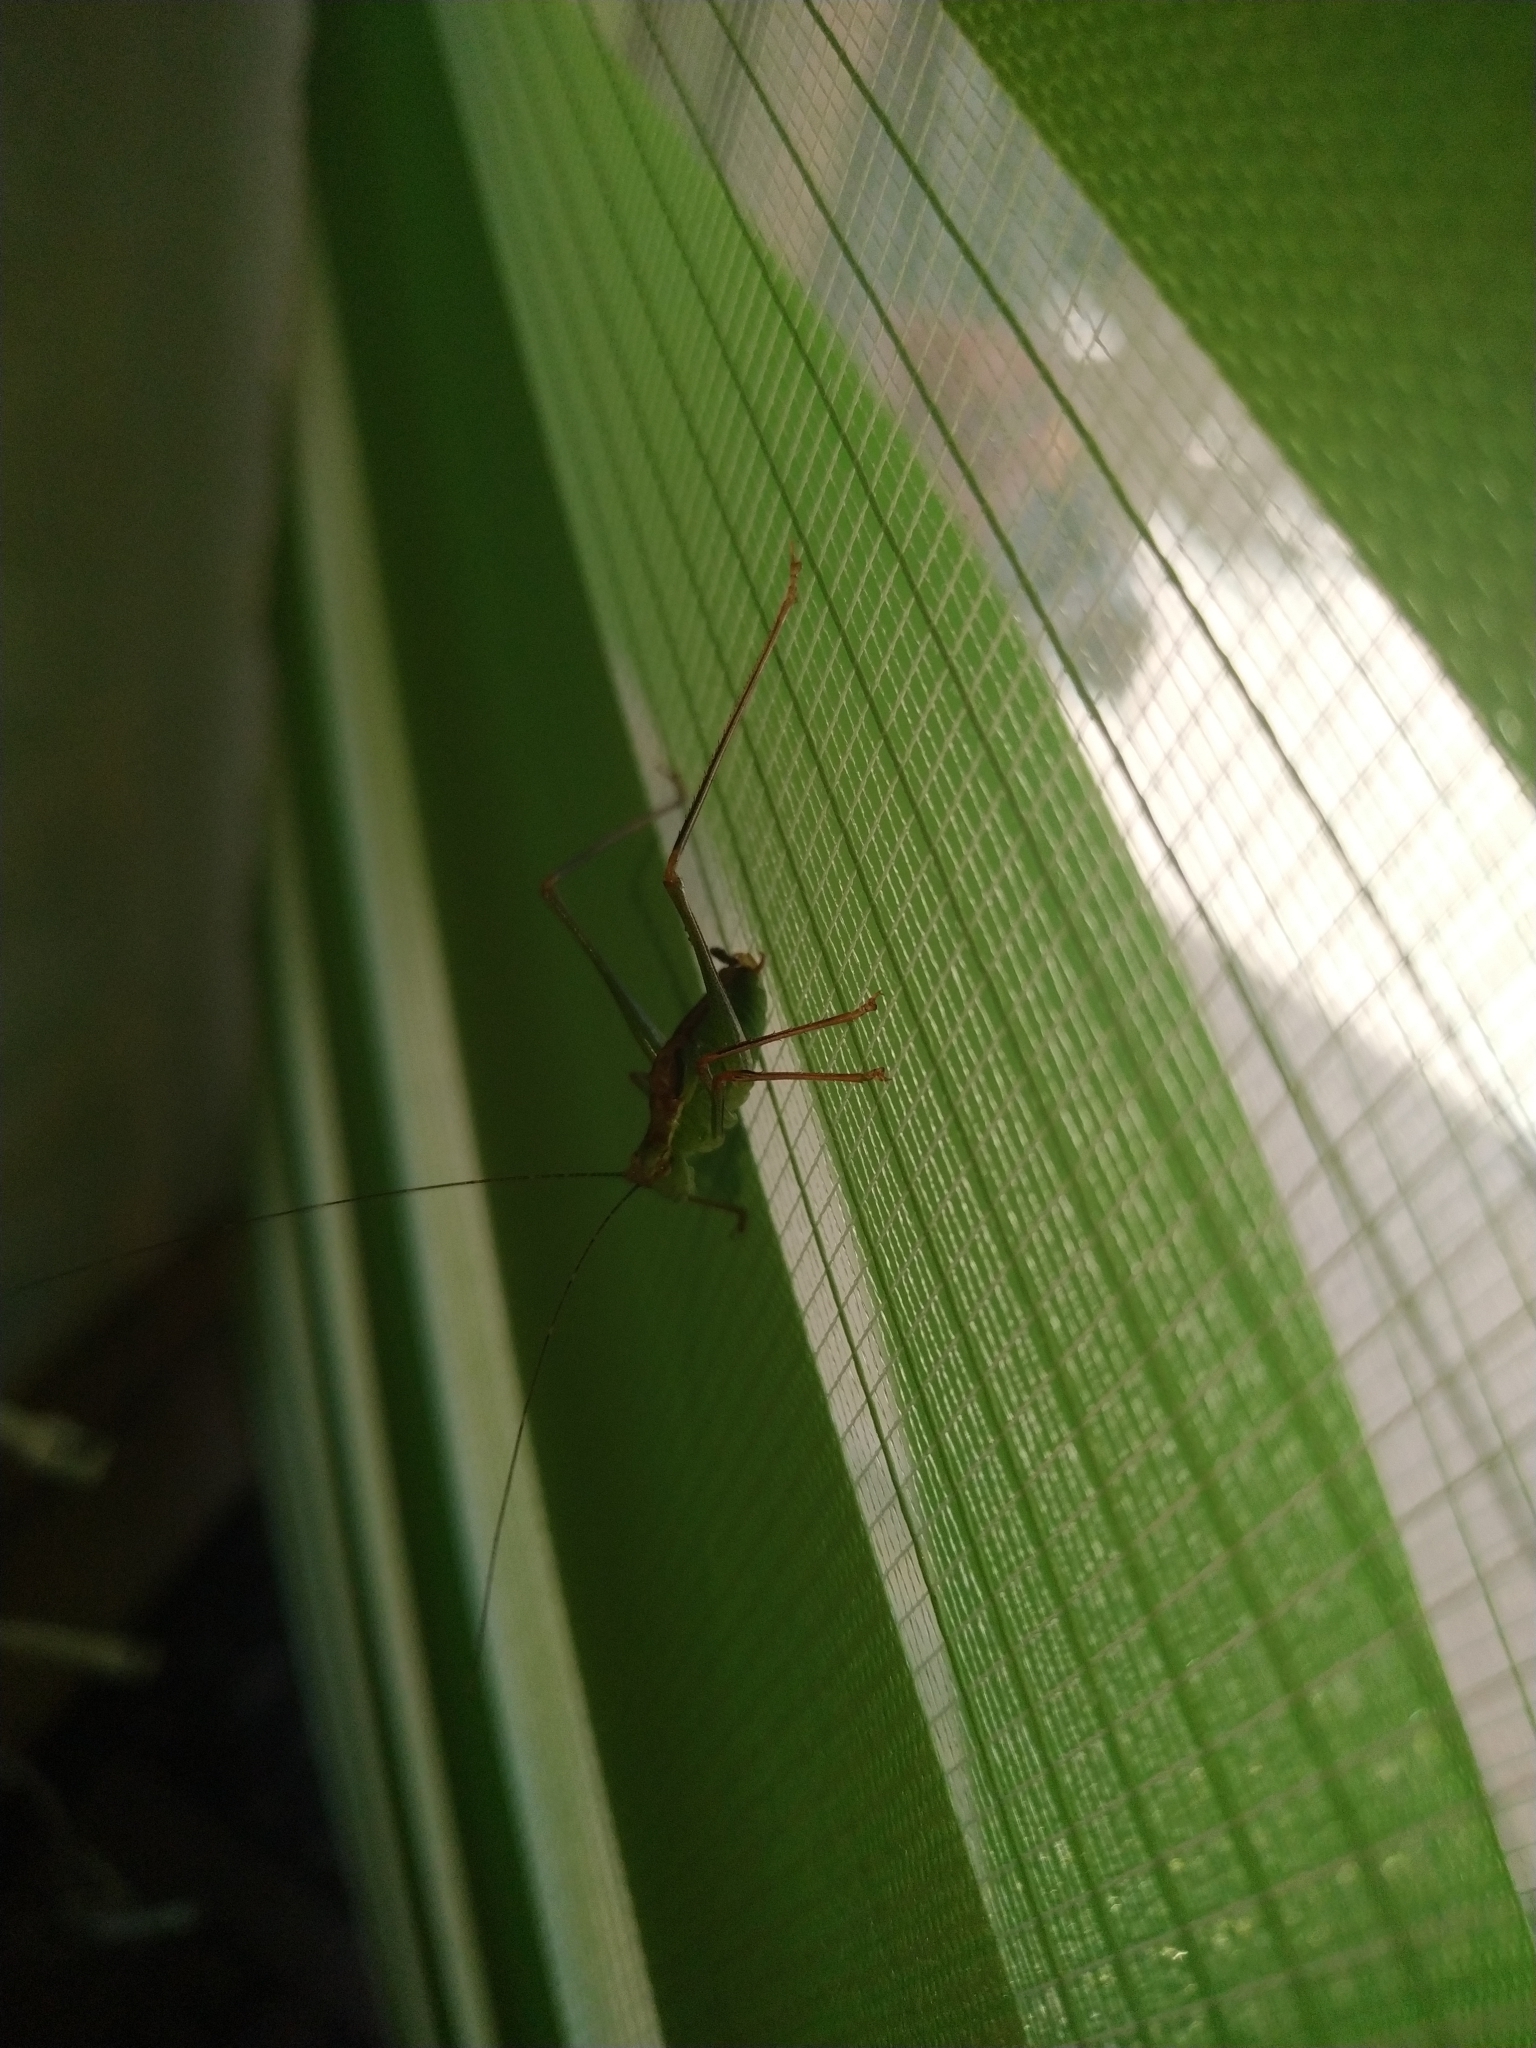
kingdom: Animalia
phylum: Arthropoda
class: Insecta
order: Orthoptera
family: Tettigoniidae
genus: Leptophyes
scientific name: Leptophyes punctatissima
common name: Speckled bush-cricket
